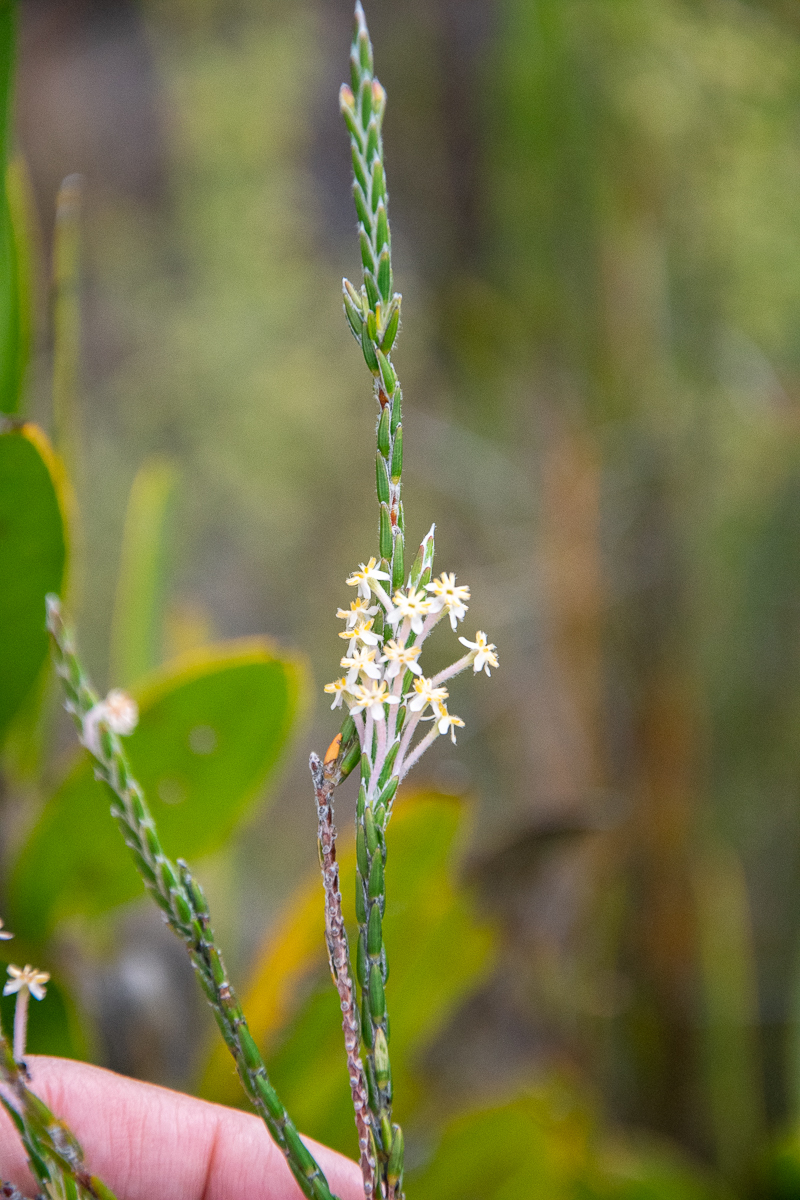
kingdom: Plantae
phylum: Tracheophyta
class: Magnoliopsida
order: Malvales
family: Thymelaeaceae
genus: Struthiola
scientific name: Struthiola ciliata
